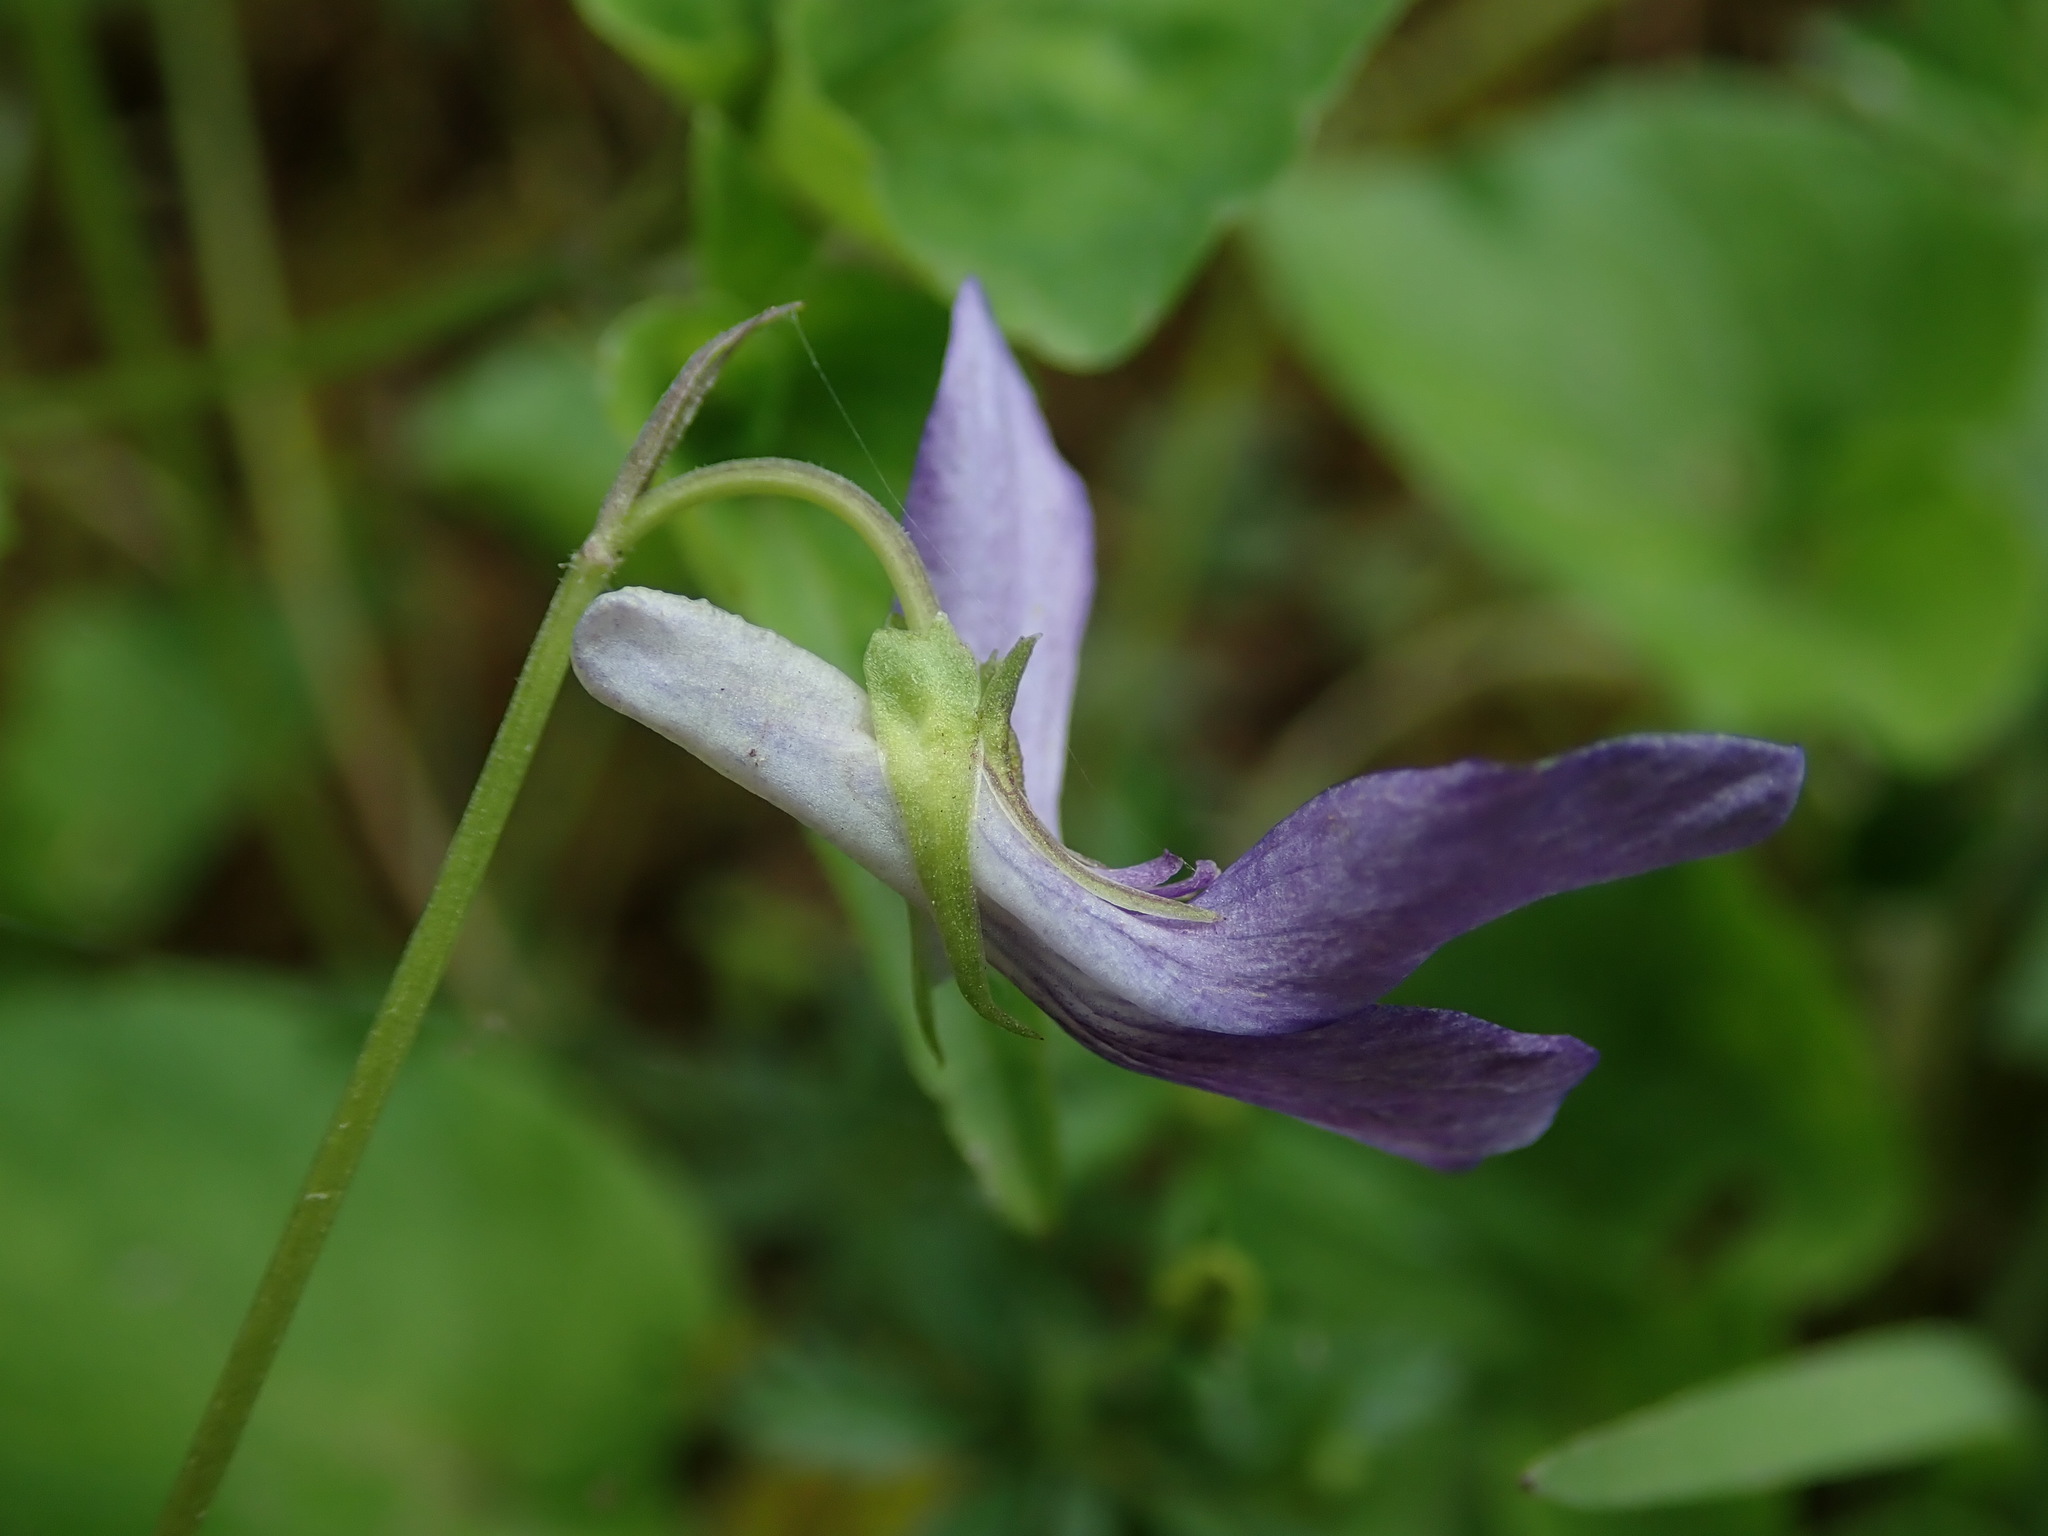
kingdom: Plantae
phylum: Tracheophyta
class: Magnoliopsida
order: Malpighiales
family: Violaceae
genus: Viola
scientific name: Viola riviniana
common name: Common dog-violet
